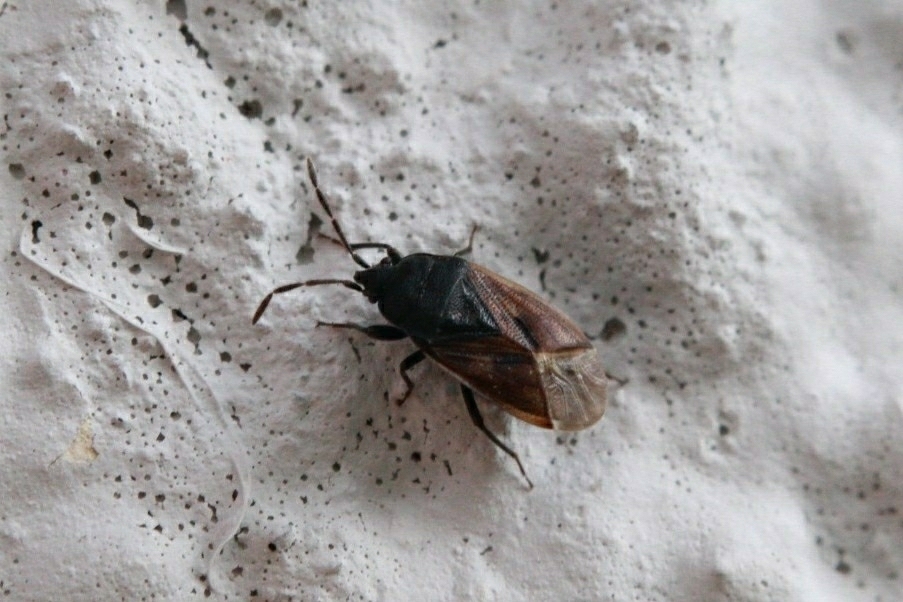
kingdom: Animalia
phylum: Arthropoda
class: Insecta
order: Hemiptera
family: Rhyparochromidae
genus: Drymus
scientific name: Drymus sylvaticus
